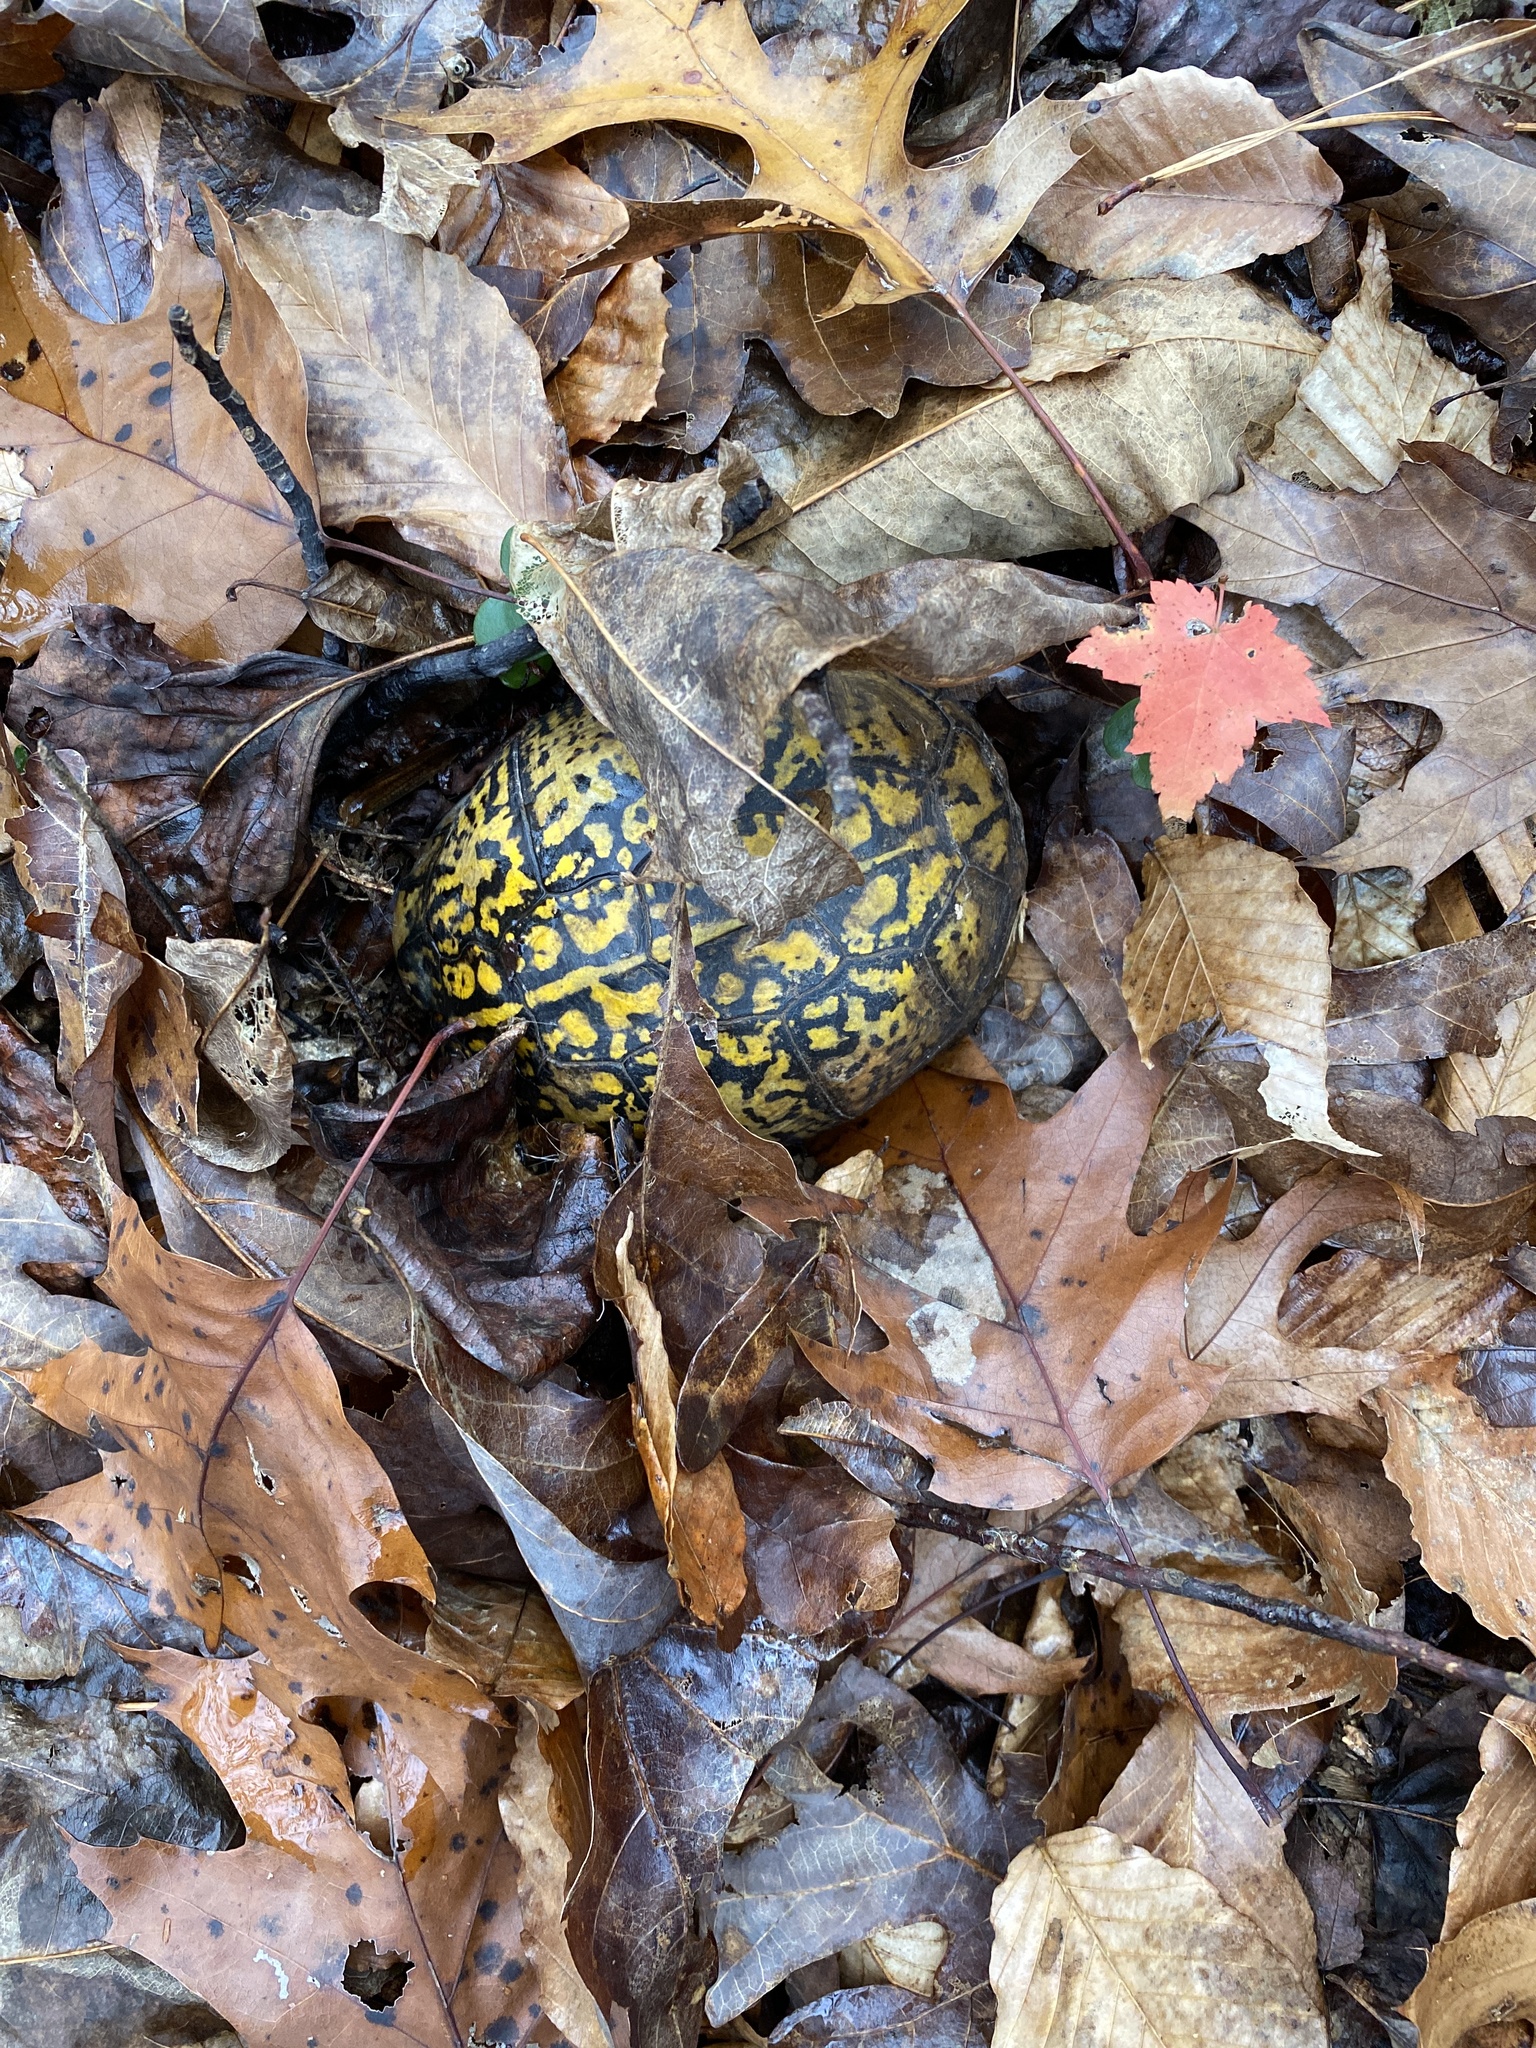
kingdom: Animalia
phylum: Chordata
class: Testudines
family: Emydidae
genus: Terrapene
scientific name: Terrapene carolina
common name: Common box turtle
